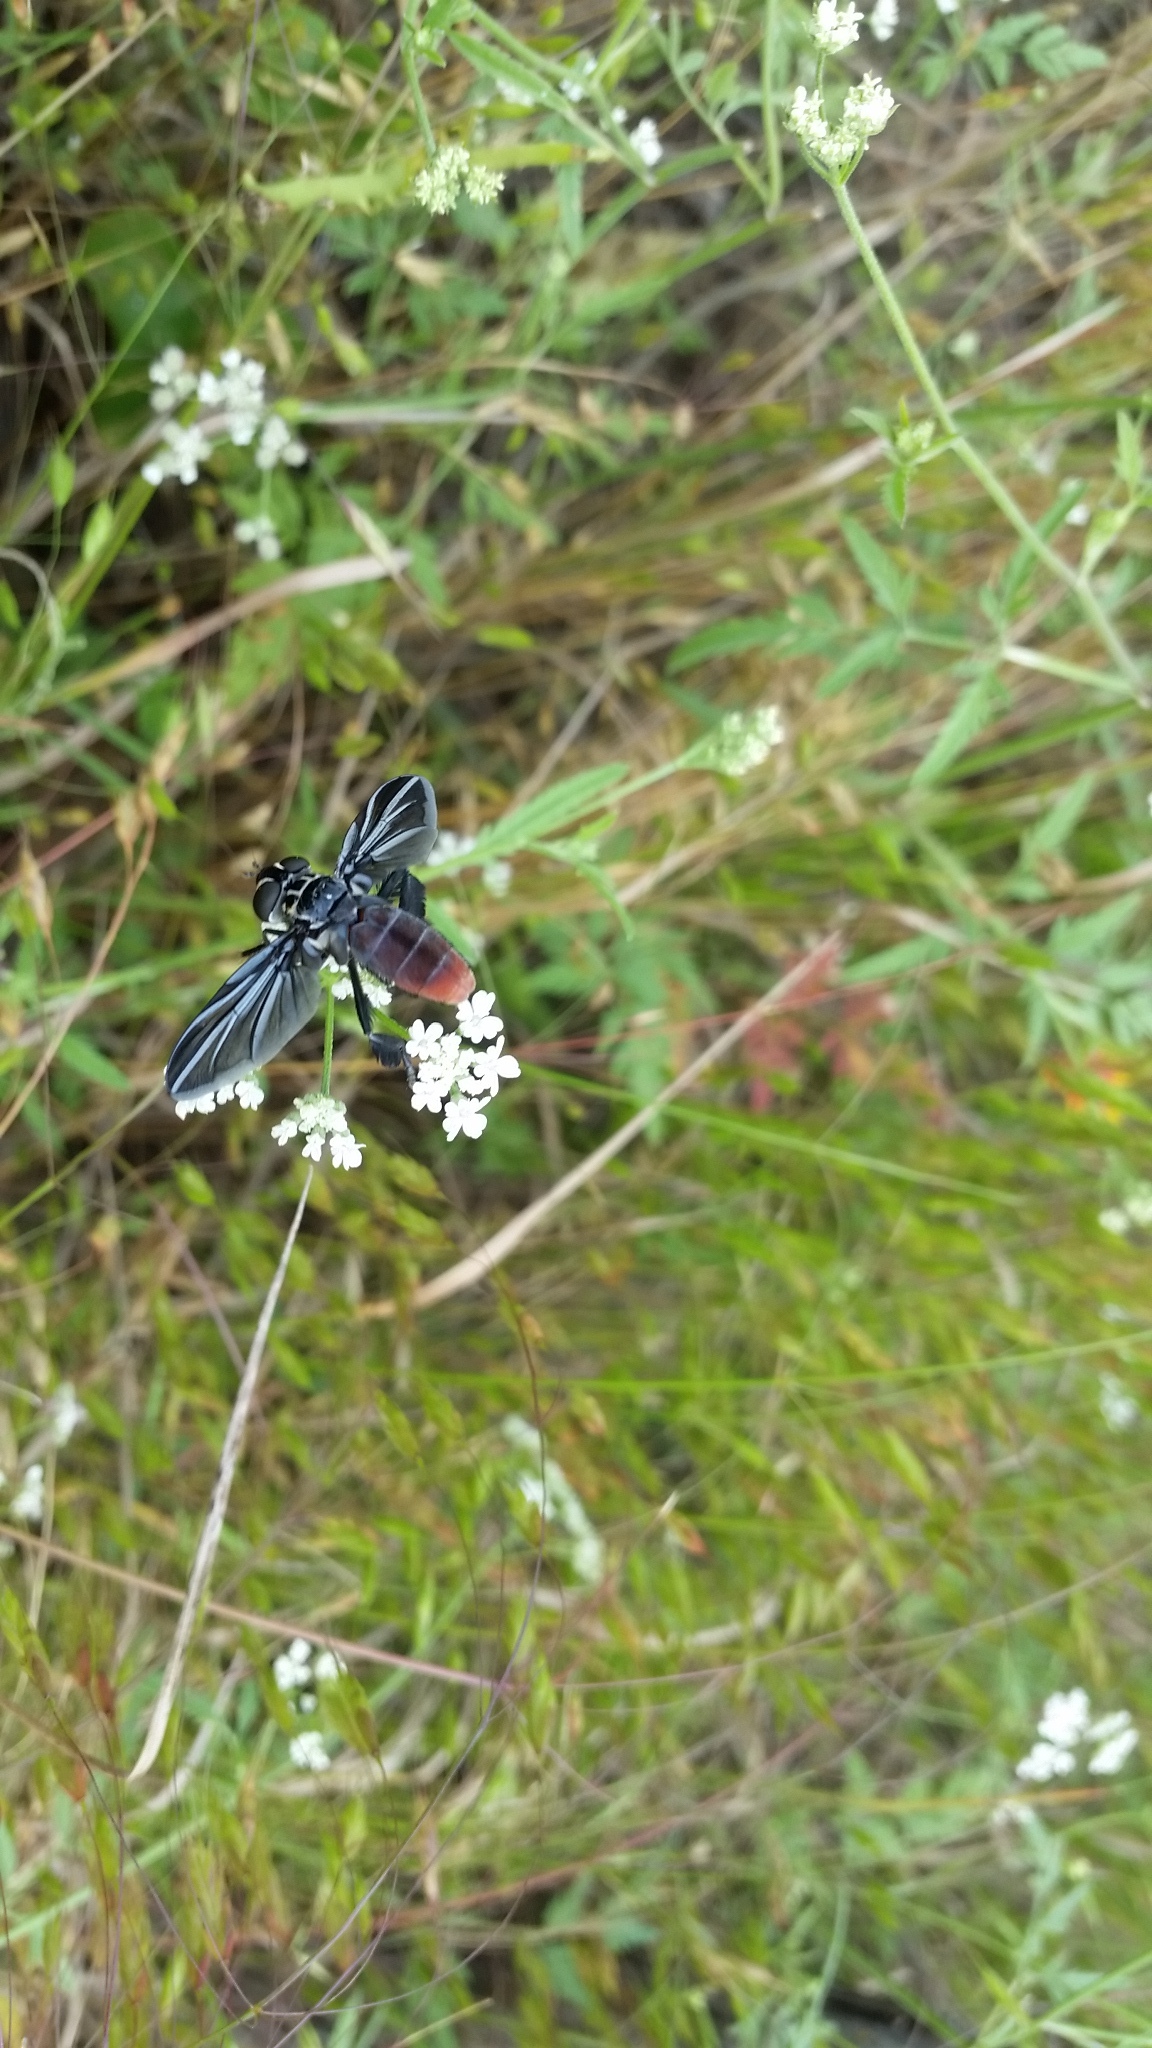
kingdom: Animalia
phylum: Arthropoda
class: Insecta
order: Diptera
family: Tachinidae
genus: Trichopoda
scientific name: Trichopoda lanipes
